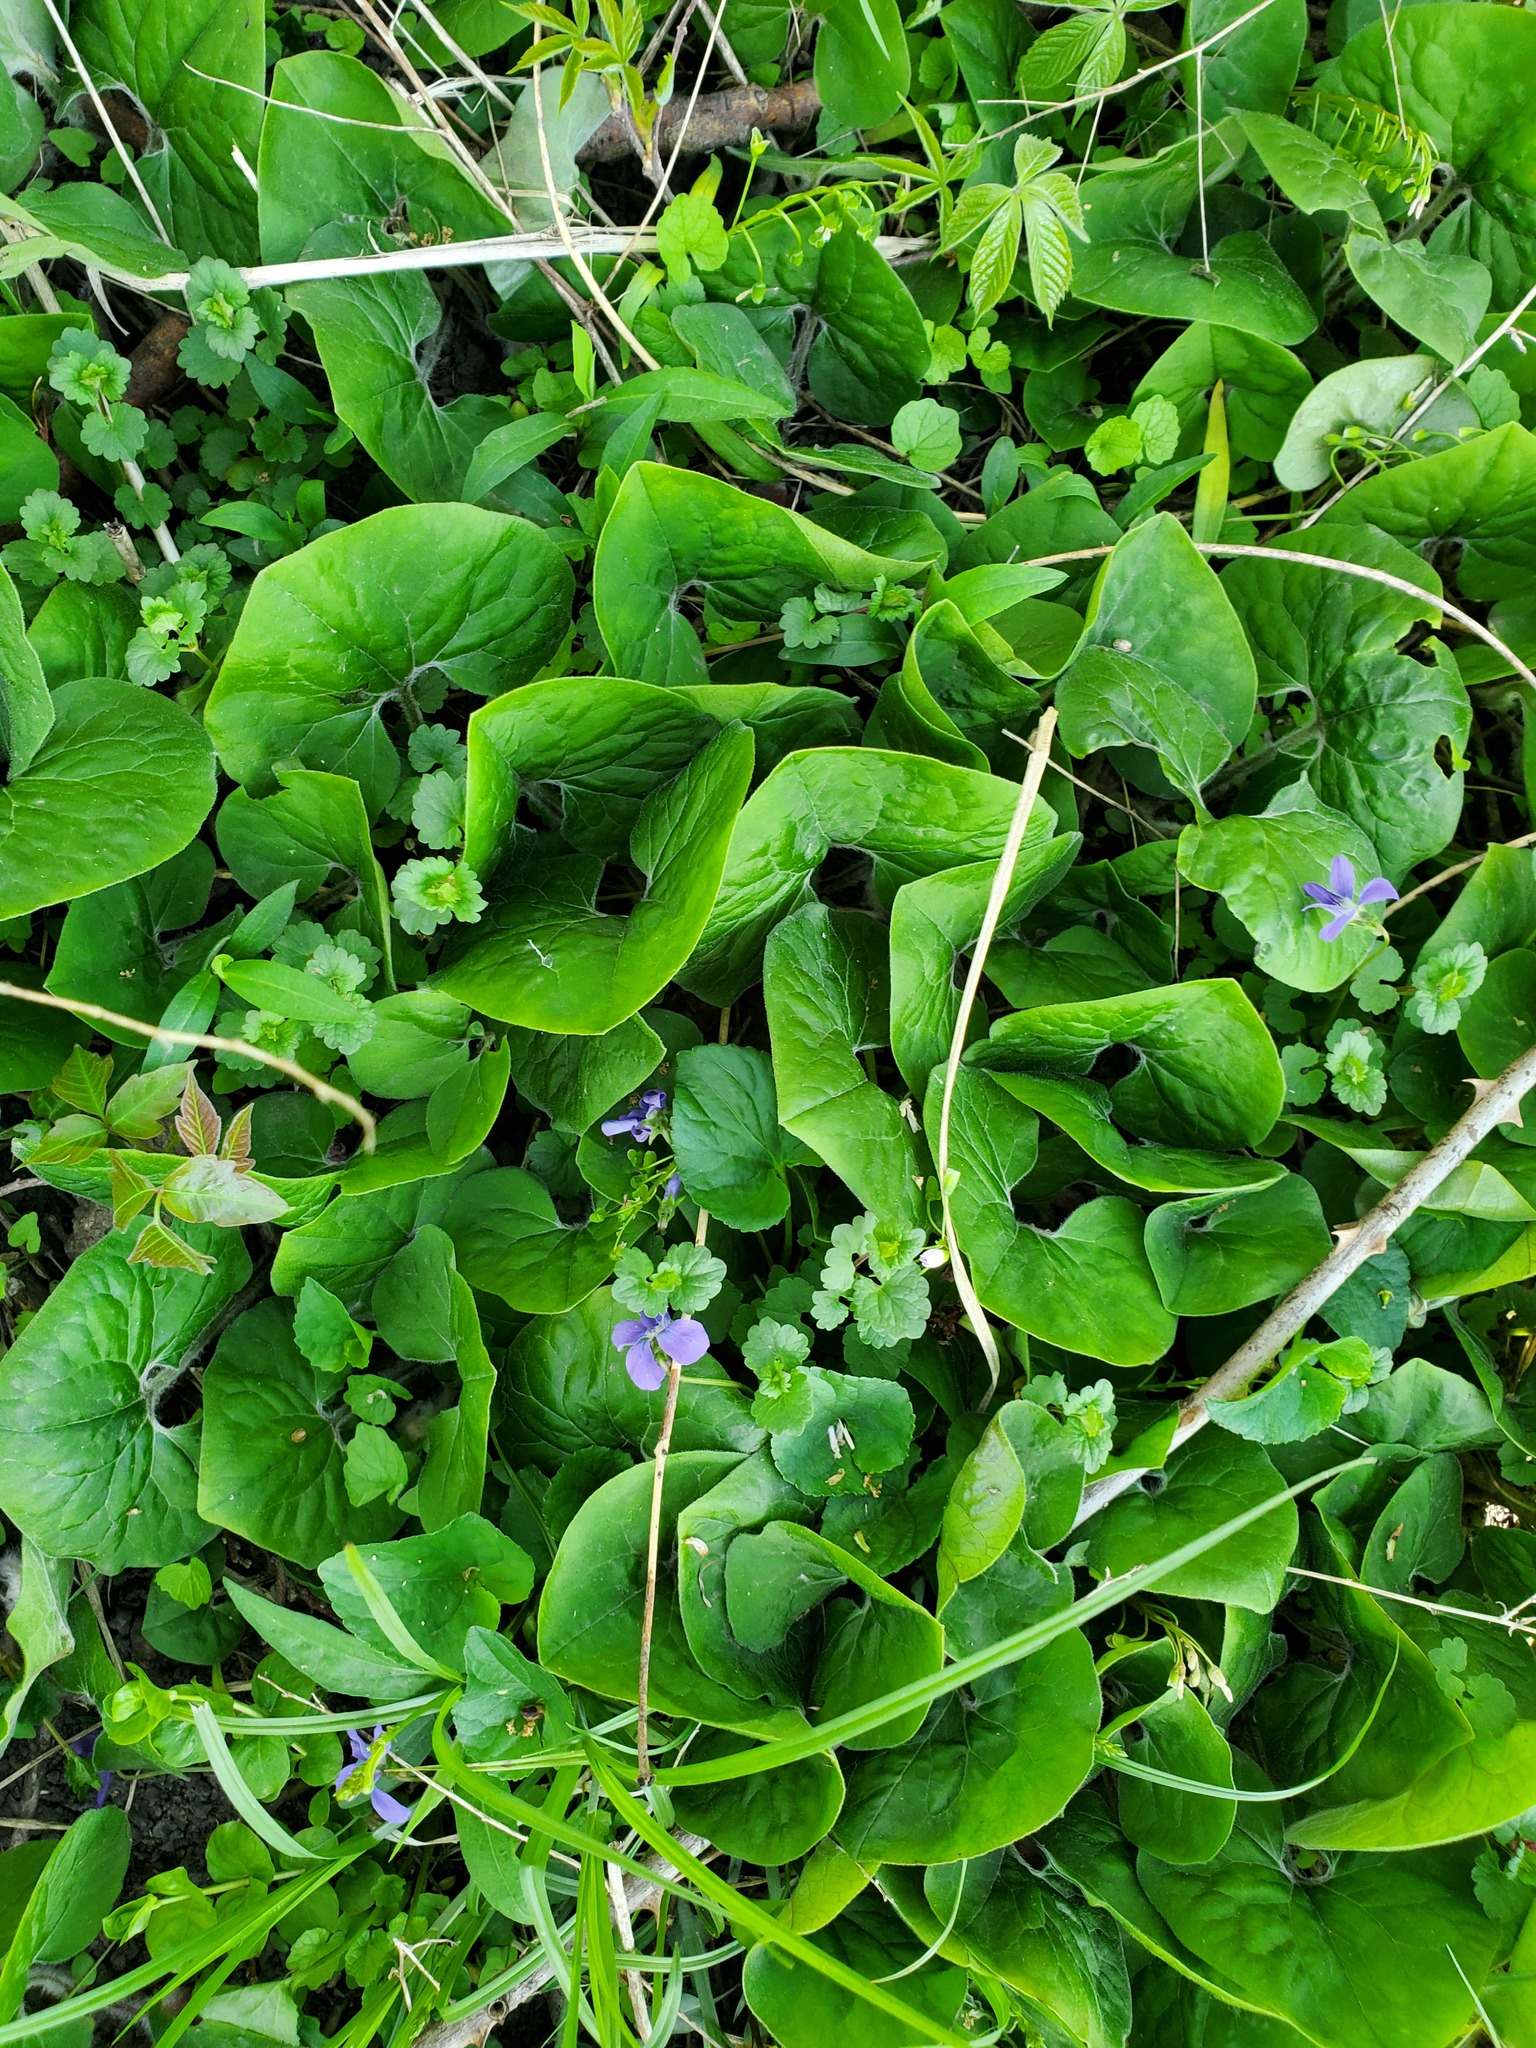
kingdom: Plantae
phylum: Tracheophyta
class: Magnoliopsida
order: Piperales
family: Aristolochiaceae
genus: Asarum
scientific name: Asarum canadense
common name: Wild ginger
